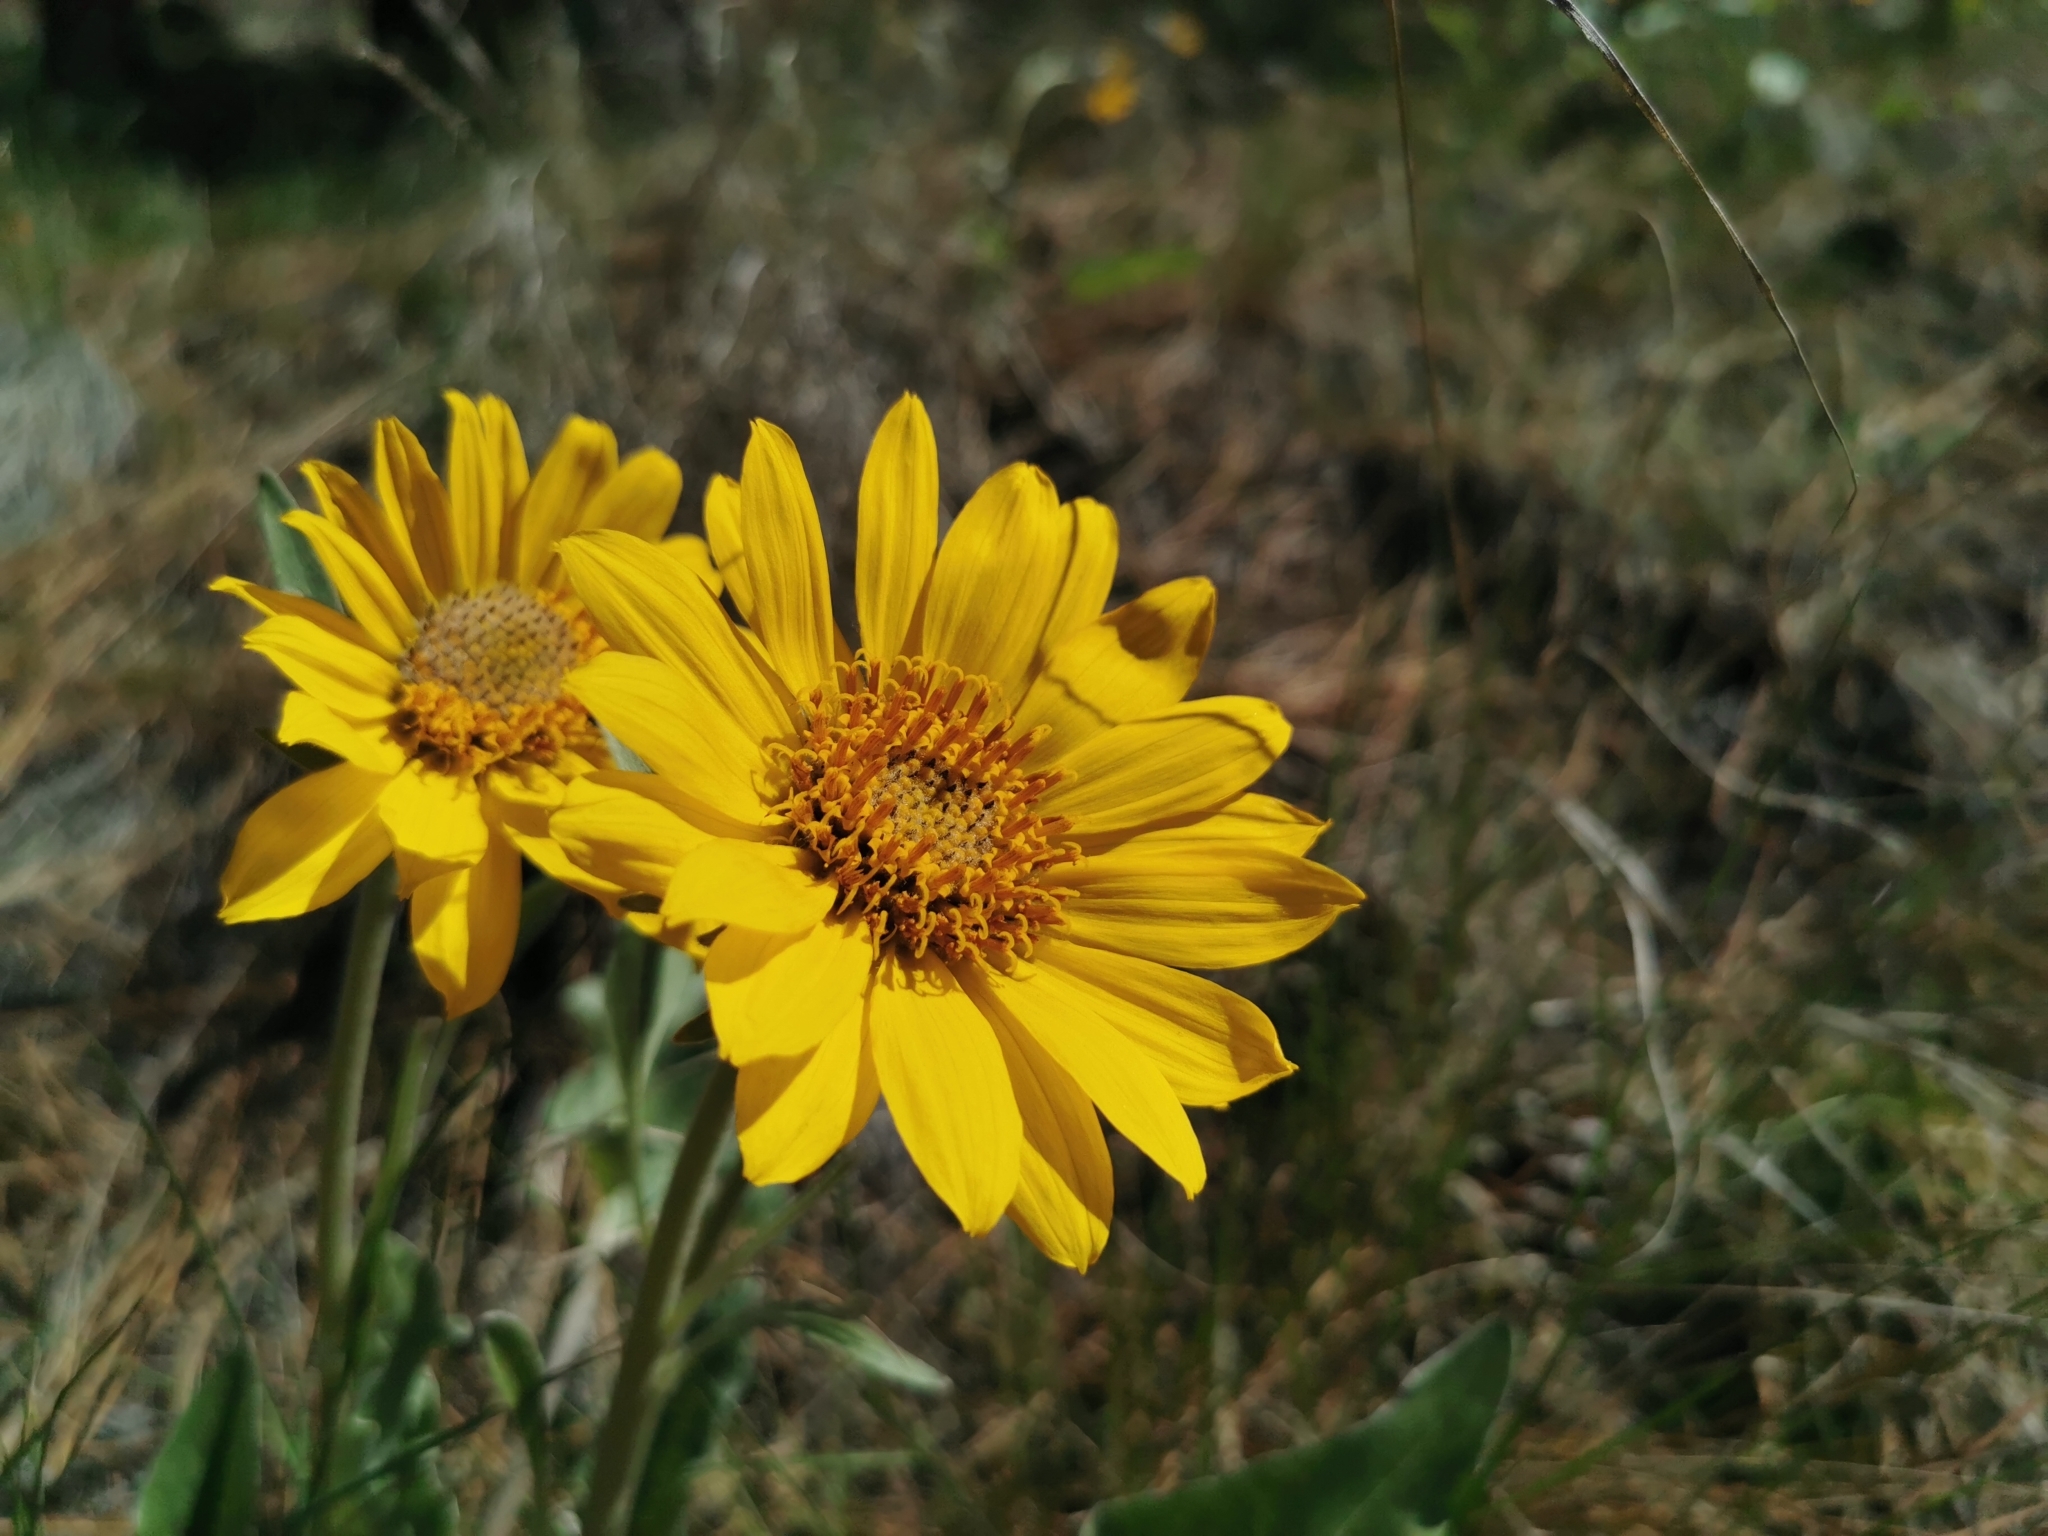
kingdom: Plantae
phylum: Tracheophyta
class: Magnoliopsida
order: Asterales
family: Asteraceae
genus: Wyethia
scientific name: Wyethia sagittata
